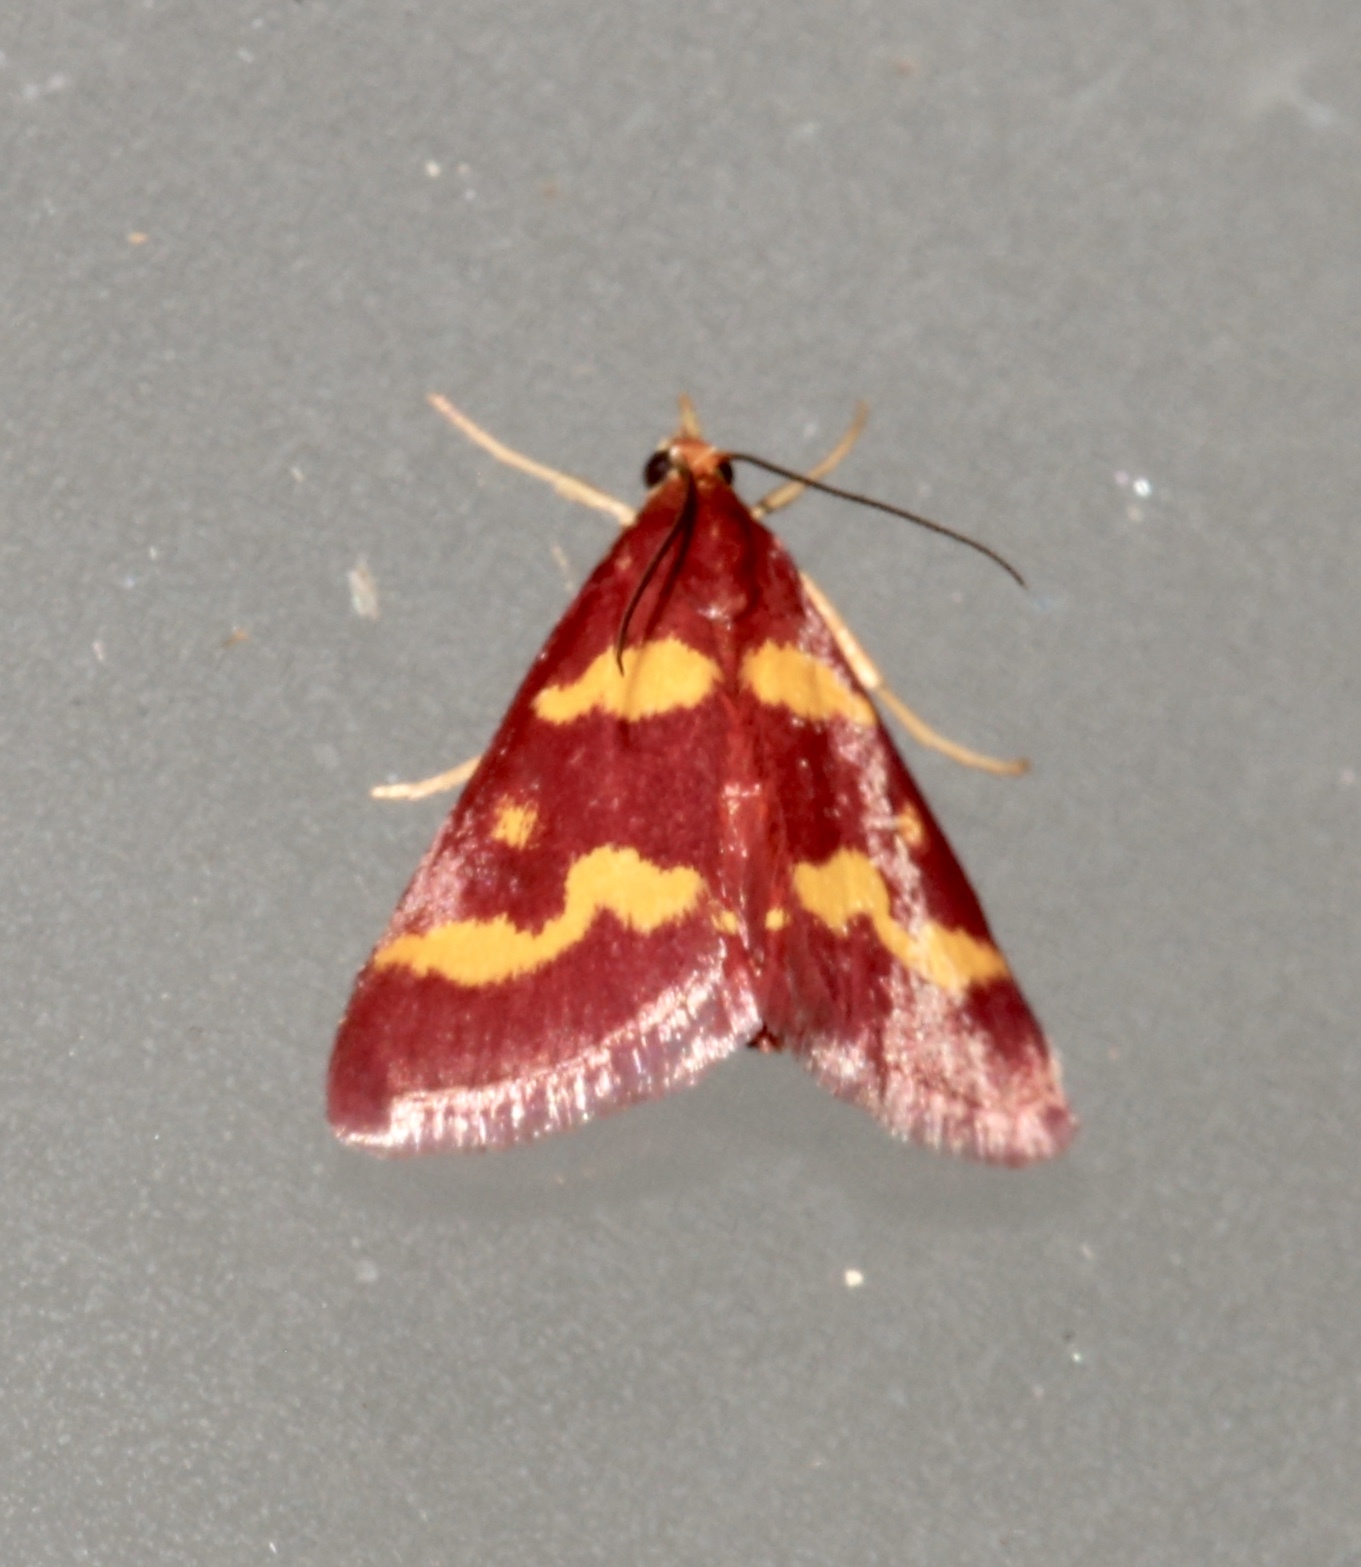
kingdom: Animalia
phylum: Arthropoda
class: Insecta
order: Lepidoptera
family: Crambidae
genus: Pyrausta
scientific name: Pyrausta tyralis
